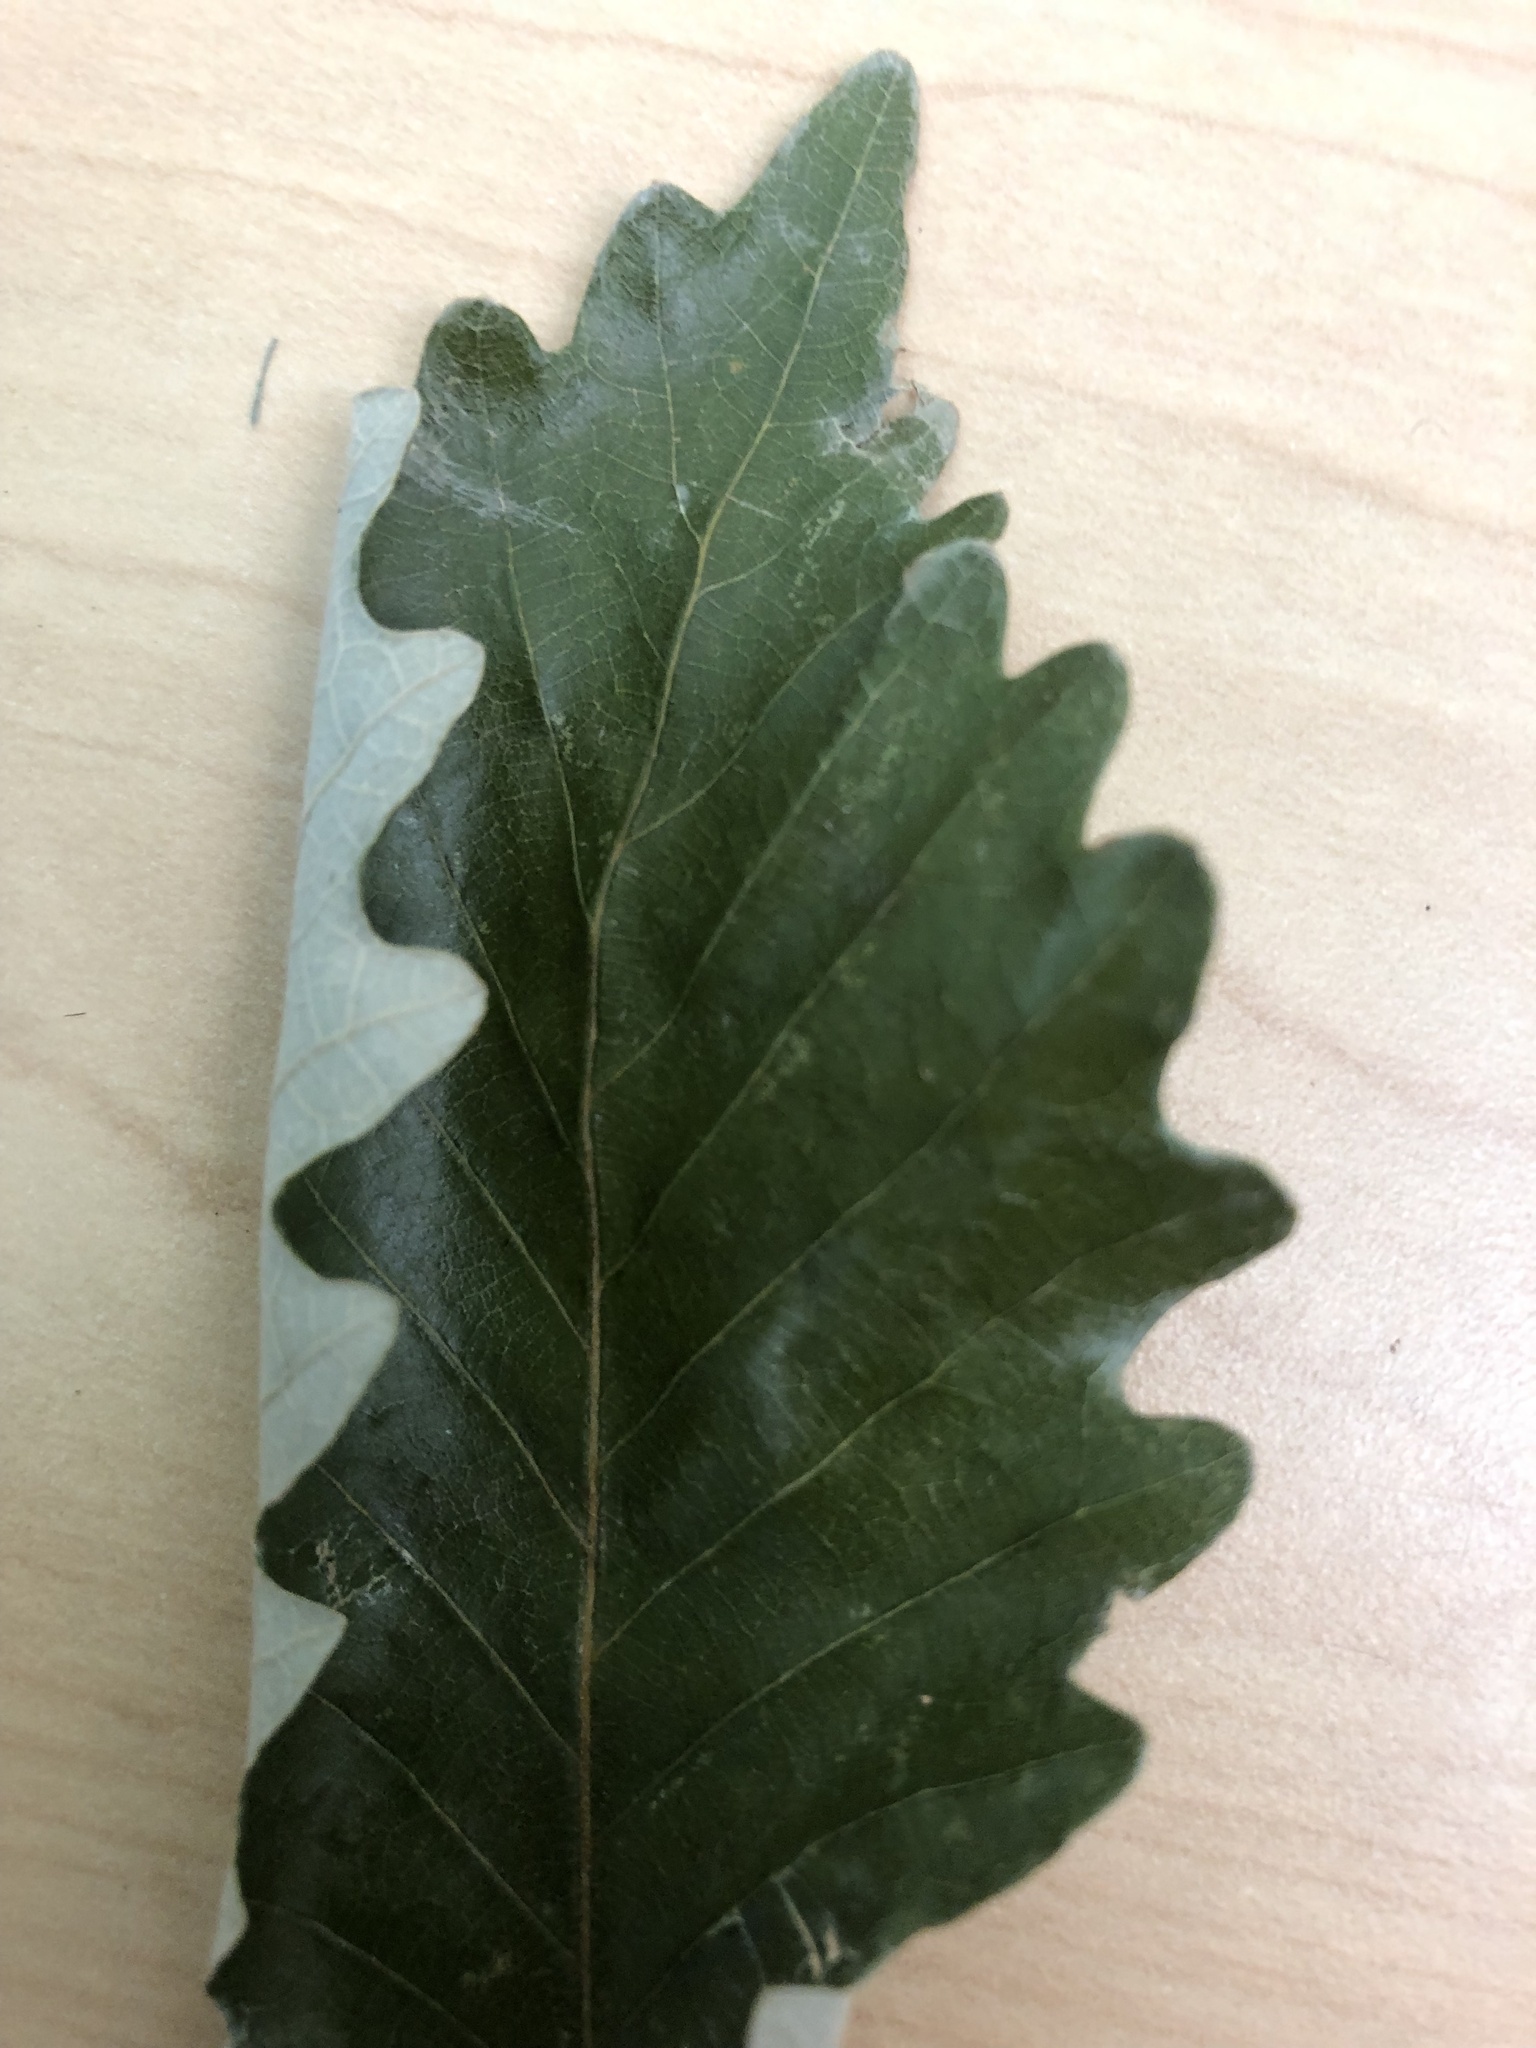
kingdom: Plantae
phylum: Tracheophyta
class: Magnoliopsida
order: Fagales
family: Fagaceae
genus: Quercus
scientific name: Quercus michauxii
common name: Swamp chestnut oak
